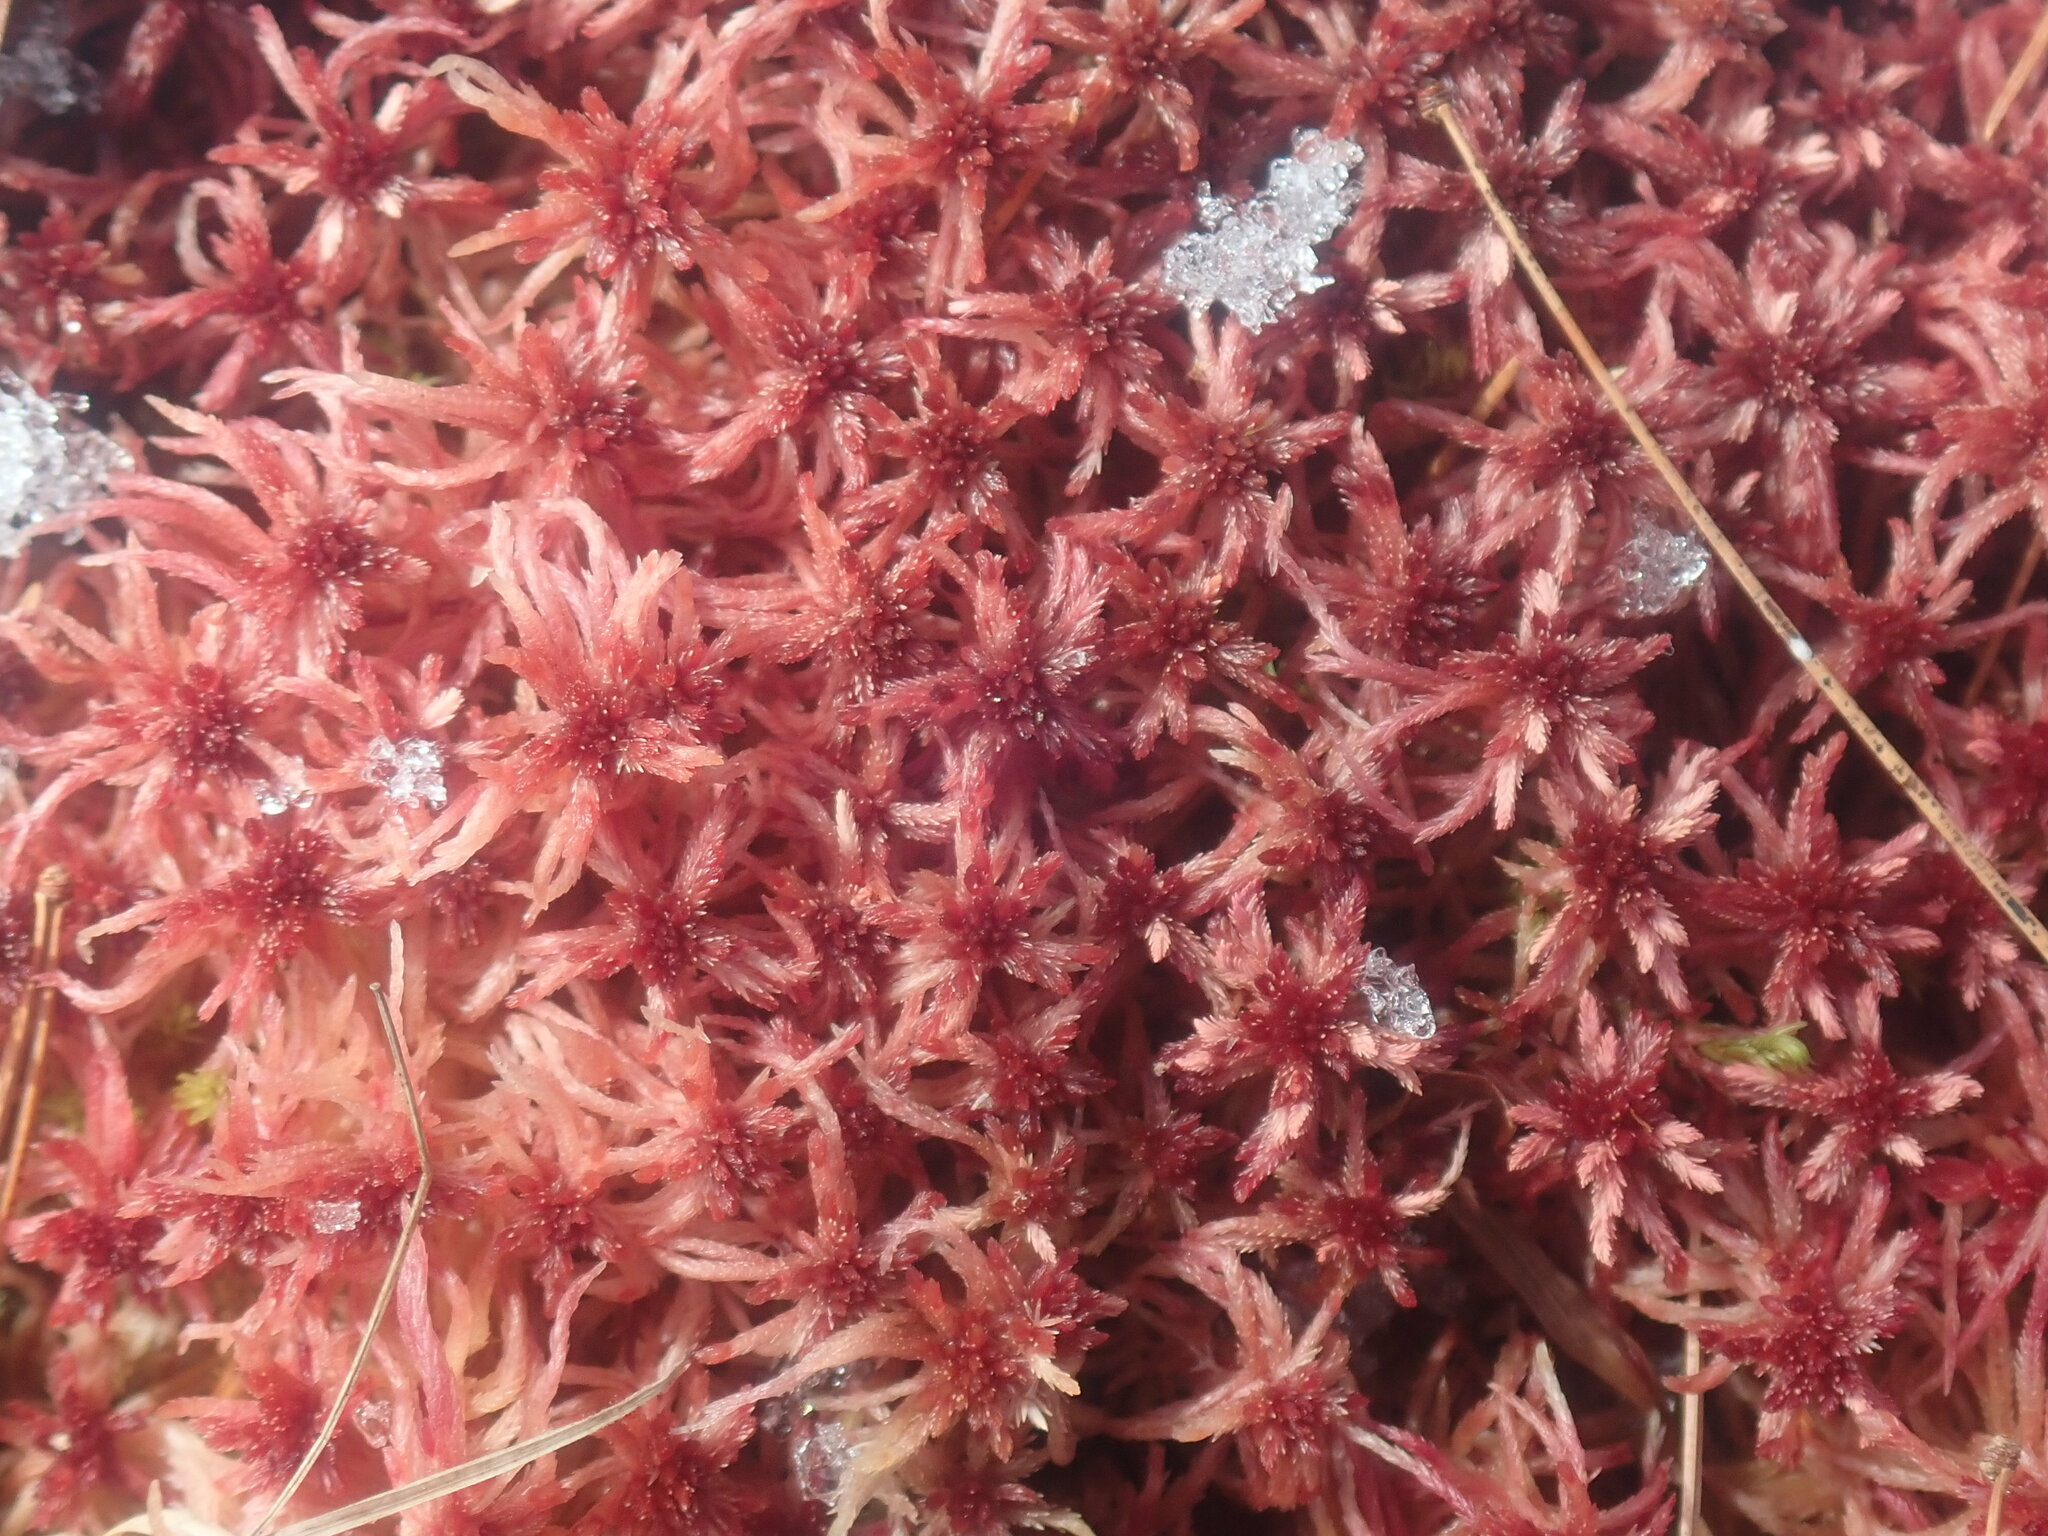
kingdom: Plantae
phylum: Bryophyta
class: Sphagnopsida
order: Sphagnales
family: Sphagnaceae
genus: Sphagnum
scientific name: Sphagnum
